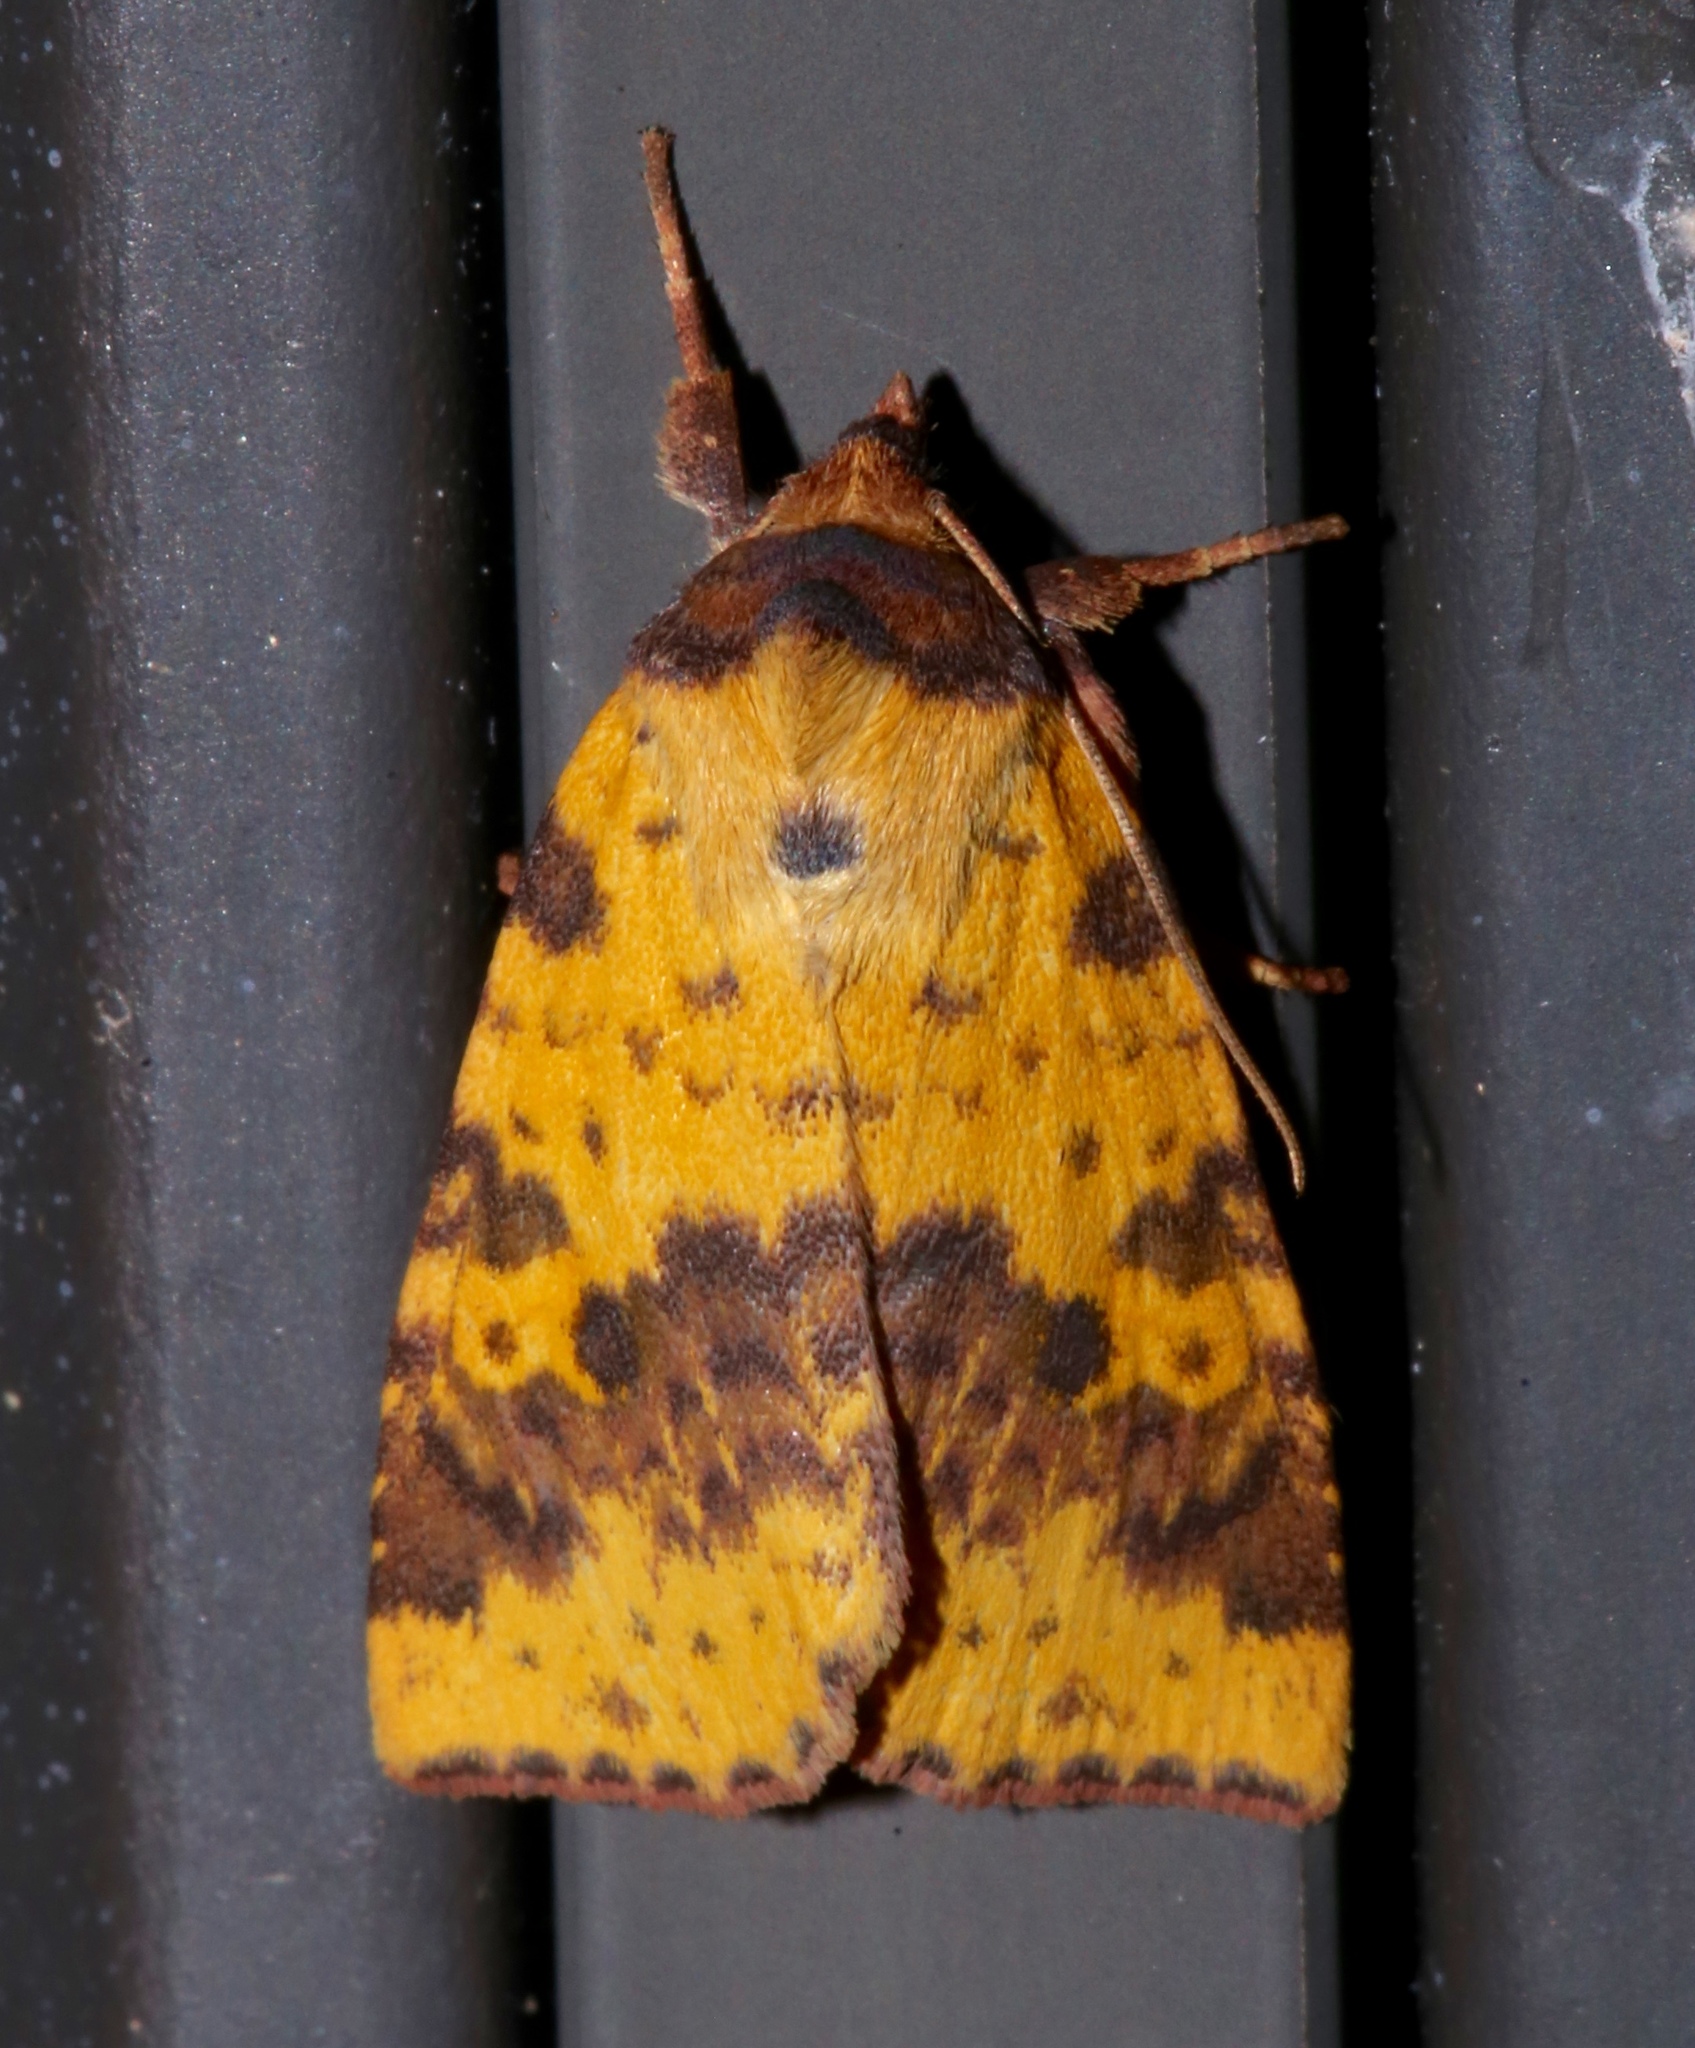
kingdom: Animalia
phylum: Arthropoda
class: Insecta
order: Lepidoptera
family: Noctuidae
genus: Xanthia
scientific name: Xanthia tatago
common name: Pink-banded sallow
